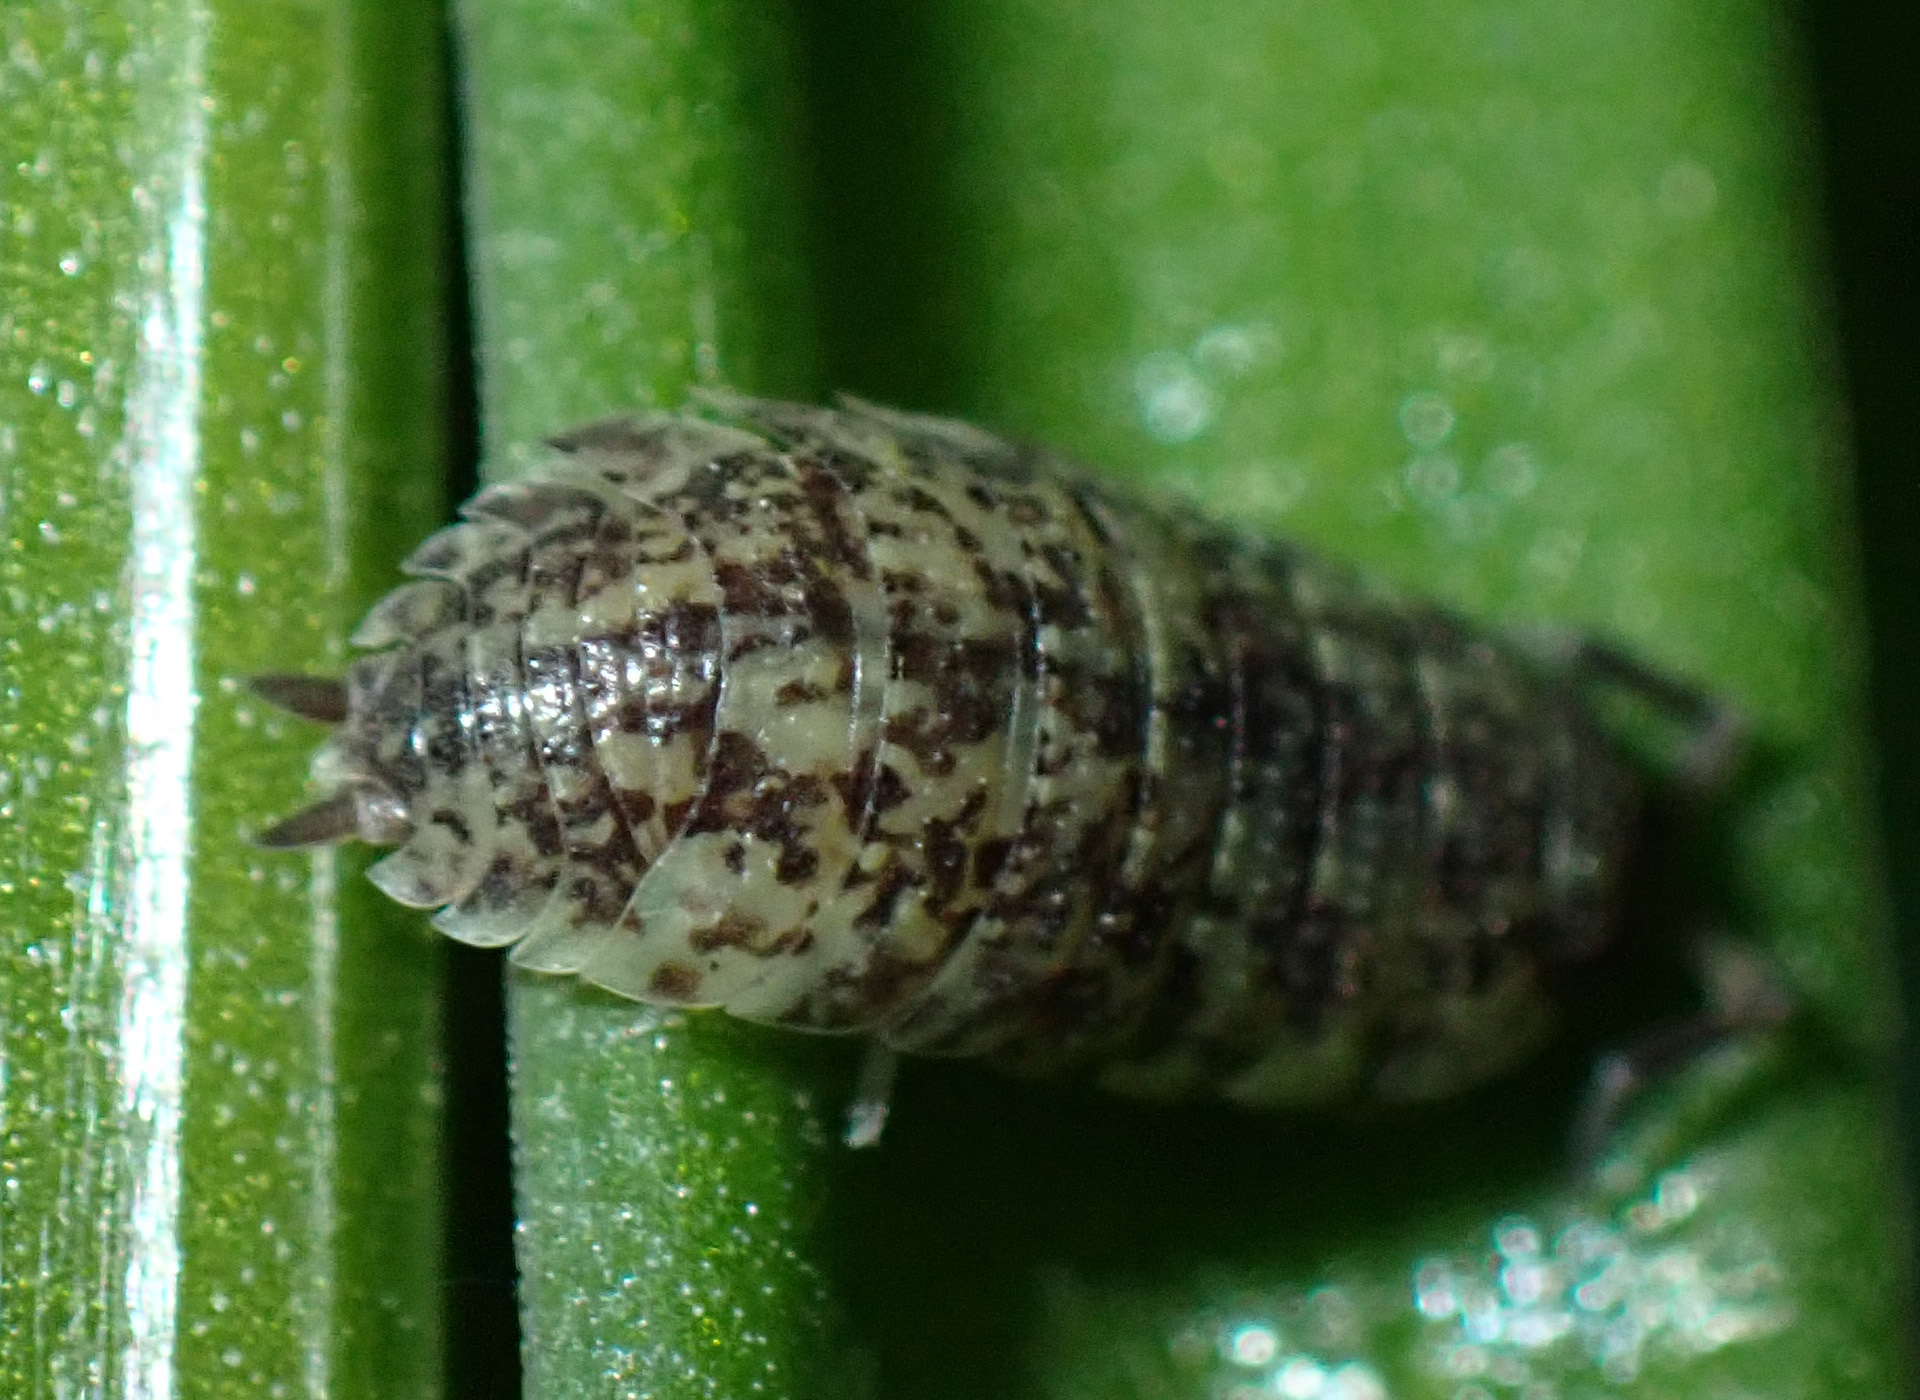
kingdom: Animalia
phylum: Arthropoda
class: Malacostraca
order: Isopoda
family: Porcellionidae
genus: Porcellio
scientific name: Porcellio scaber
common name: Common rough woodlouse
